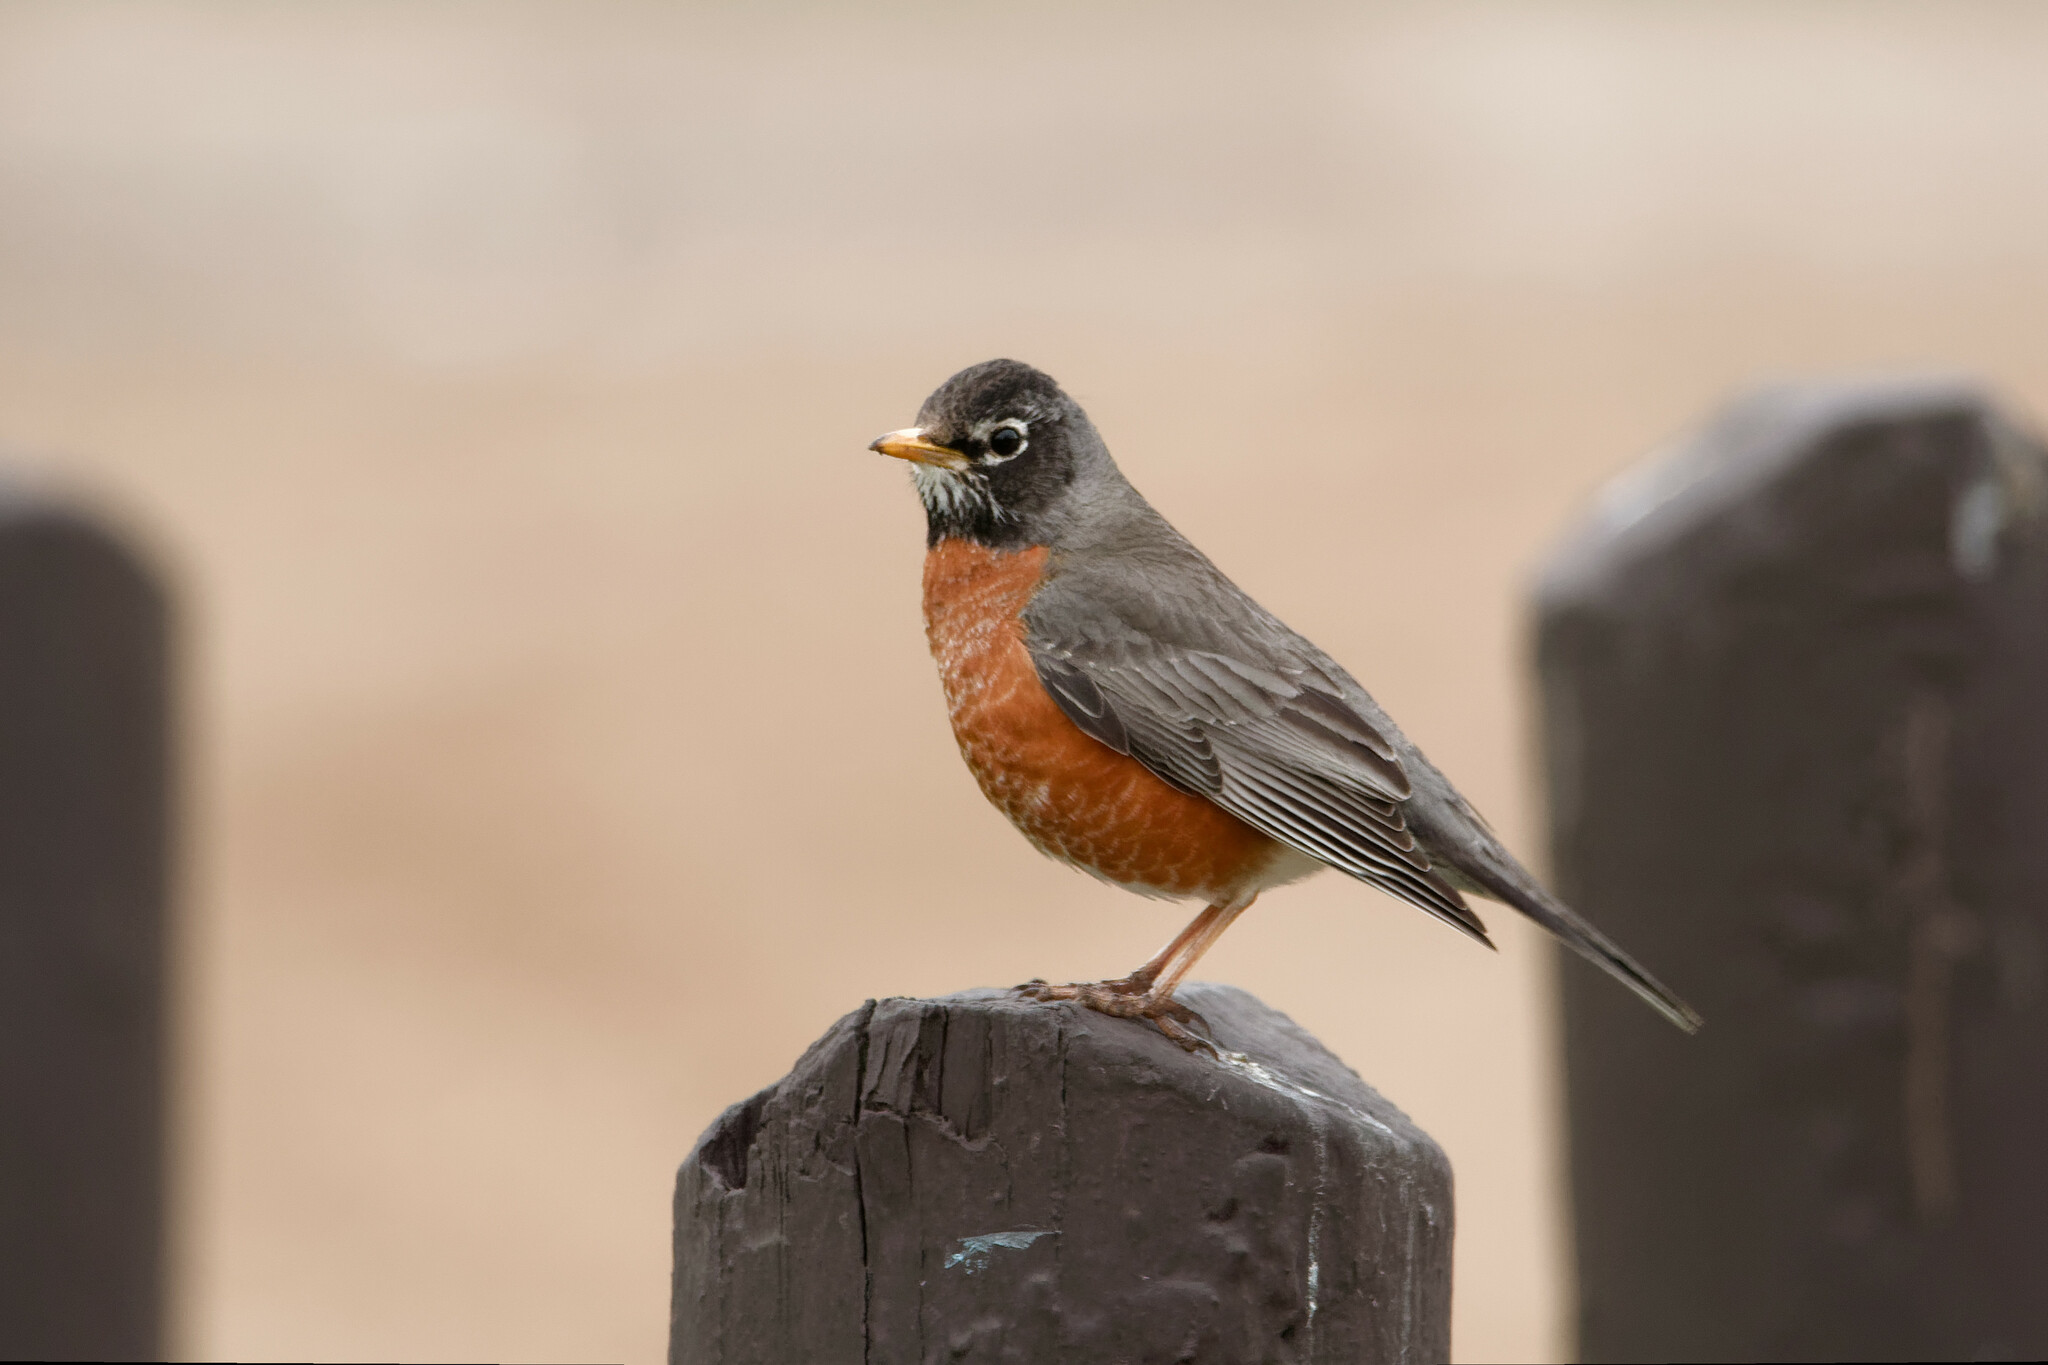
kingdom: Animalia
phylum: Chordata
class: Aves
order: Passeriformes
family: Turdidae
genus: Turdus
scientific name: Turdus migratorius
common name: American robin
